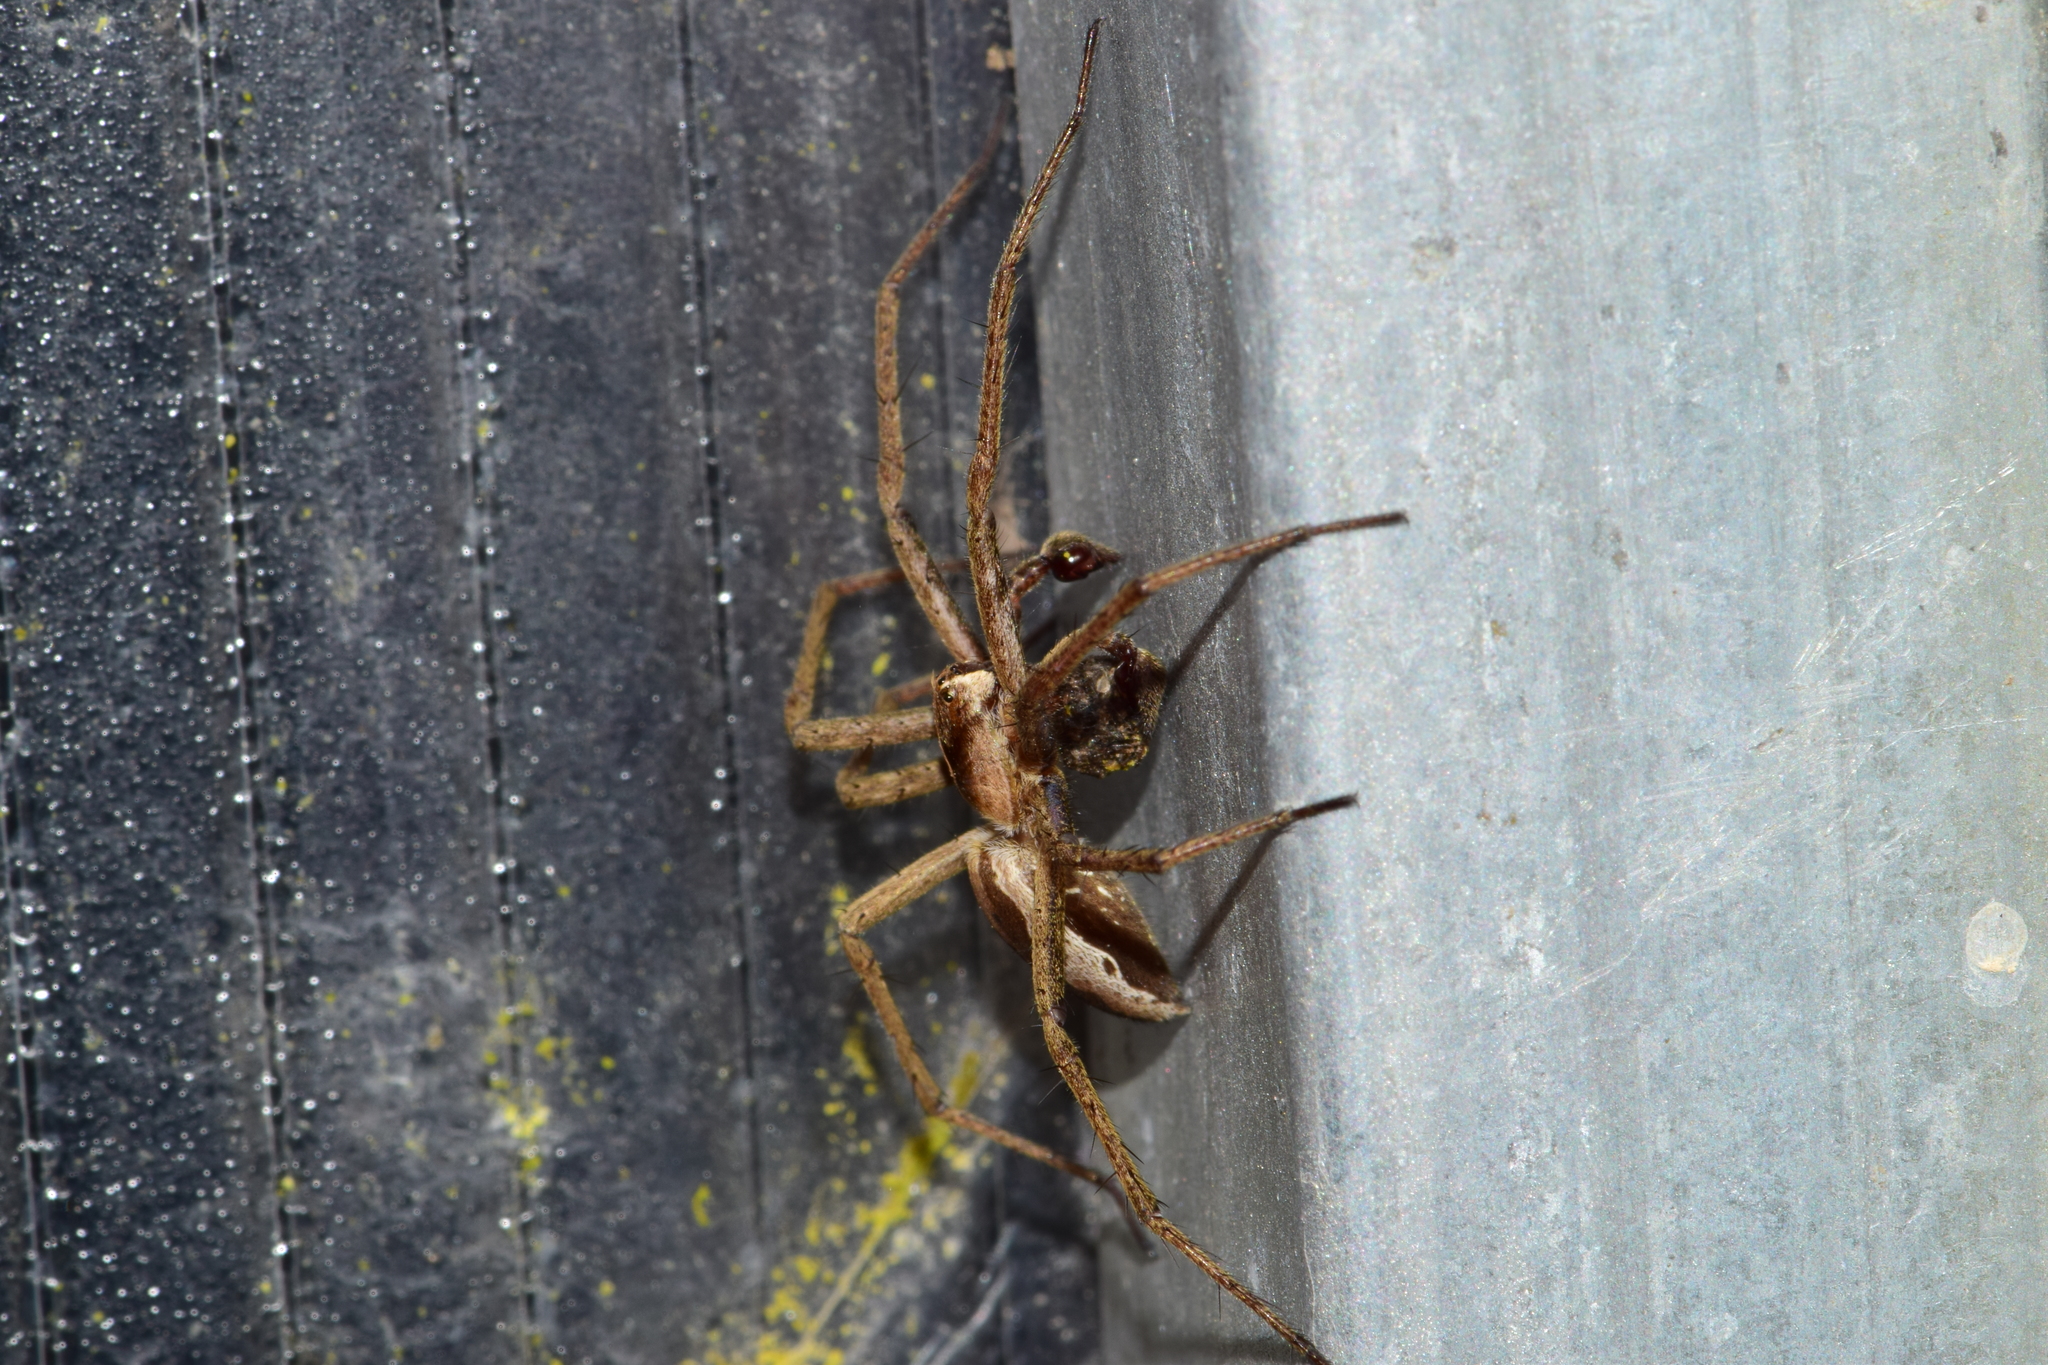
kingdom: Animalia
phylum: Arthropoda
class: Arachnida
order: Araneae
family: Pisauridae
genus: Pisaura
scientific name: Pisaura mirabilis
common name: Tent spider
